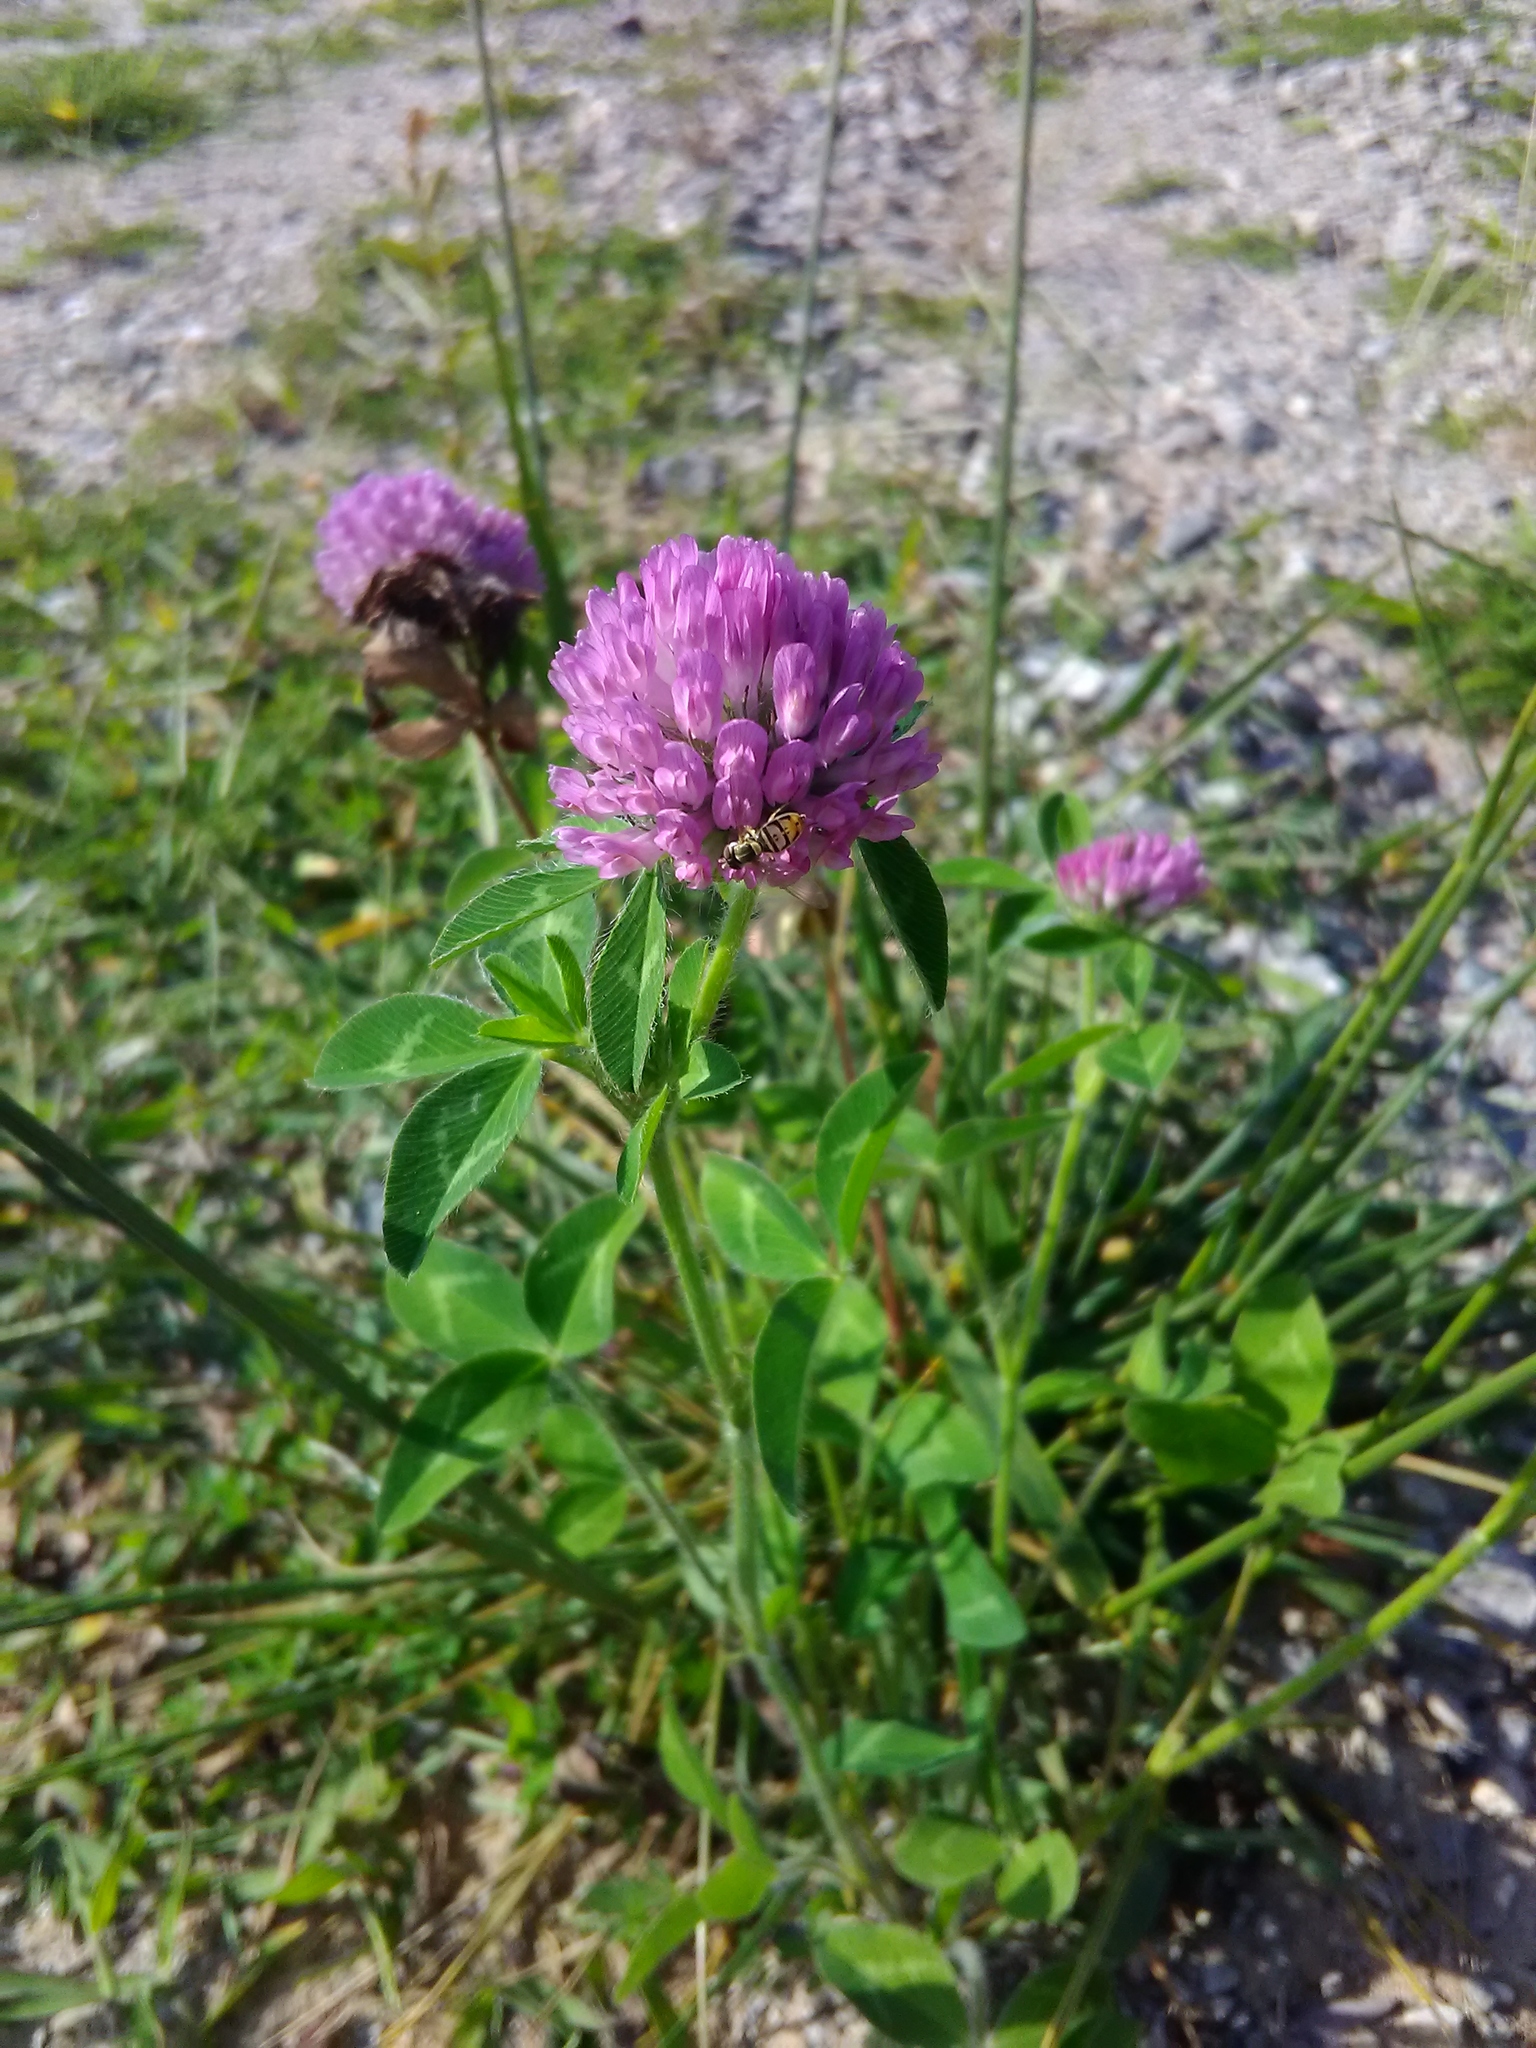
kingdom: Animalia
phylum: Arthropoda
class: Insecta
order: Diptera
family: Syrphidae
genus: Toxomerus
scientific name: Toxomerus marginatus
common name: Syrphid fly
